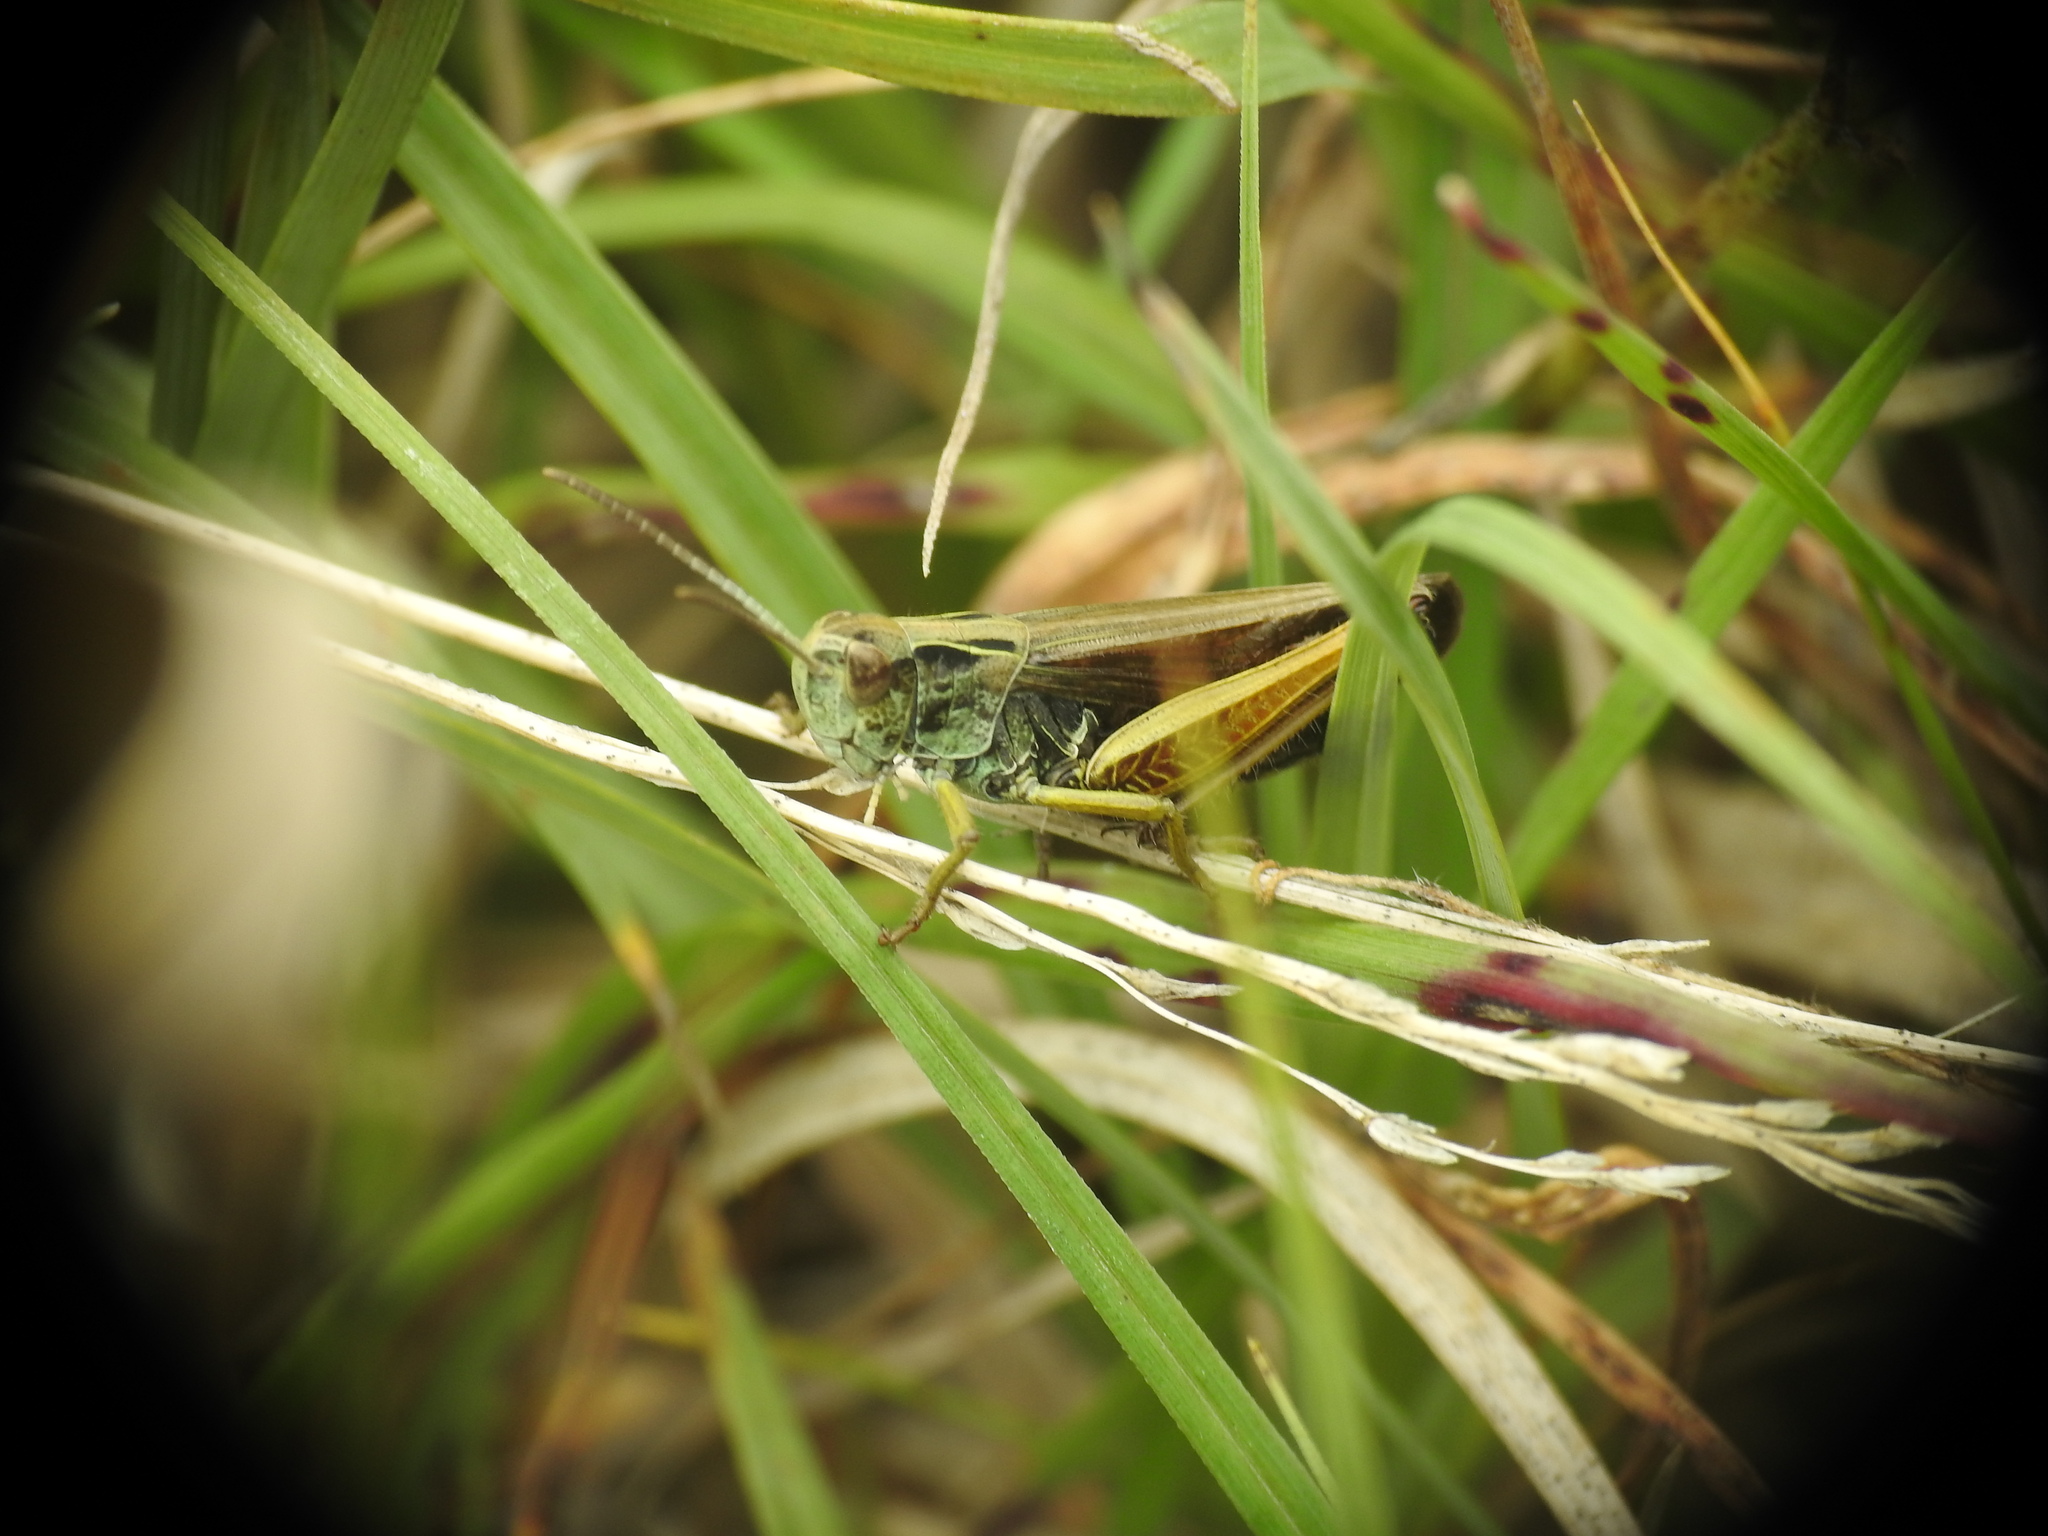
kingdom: Animalia
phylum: Arthropoda
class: Insecta
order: Orthoptera
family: Acrididae
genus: Omocestus
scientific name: Omocestus viridulus
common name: Common green grasshopper
